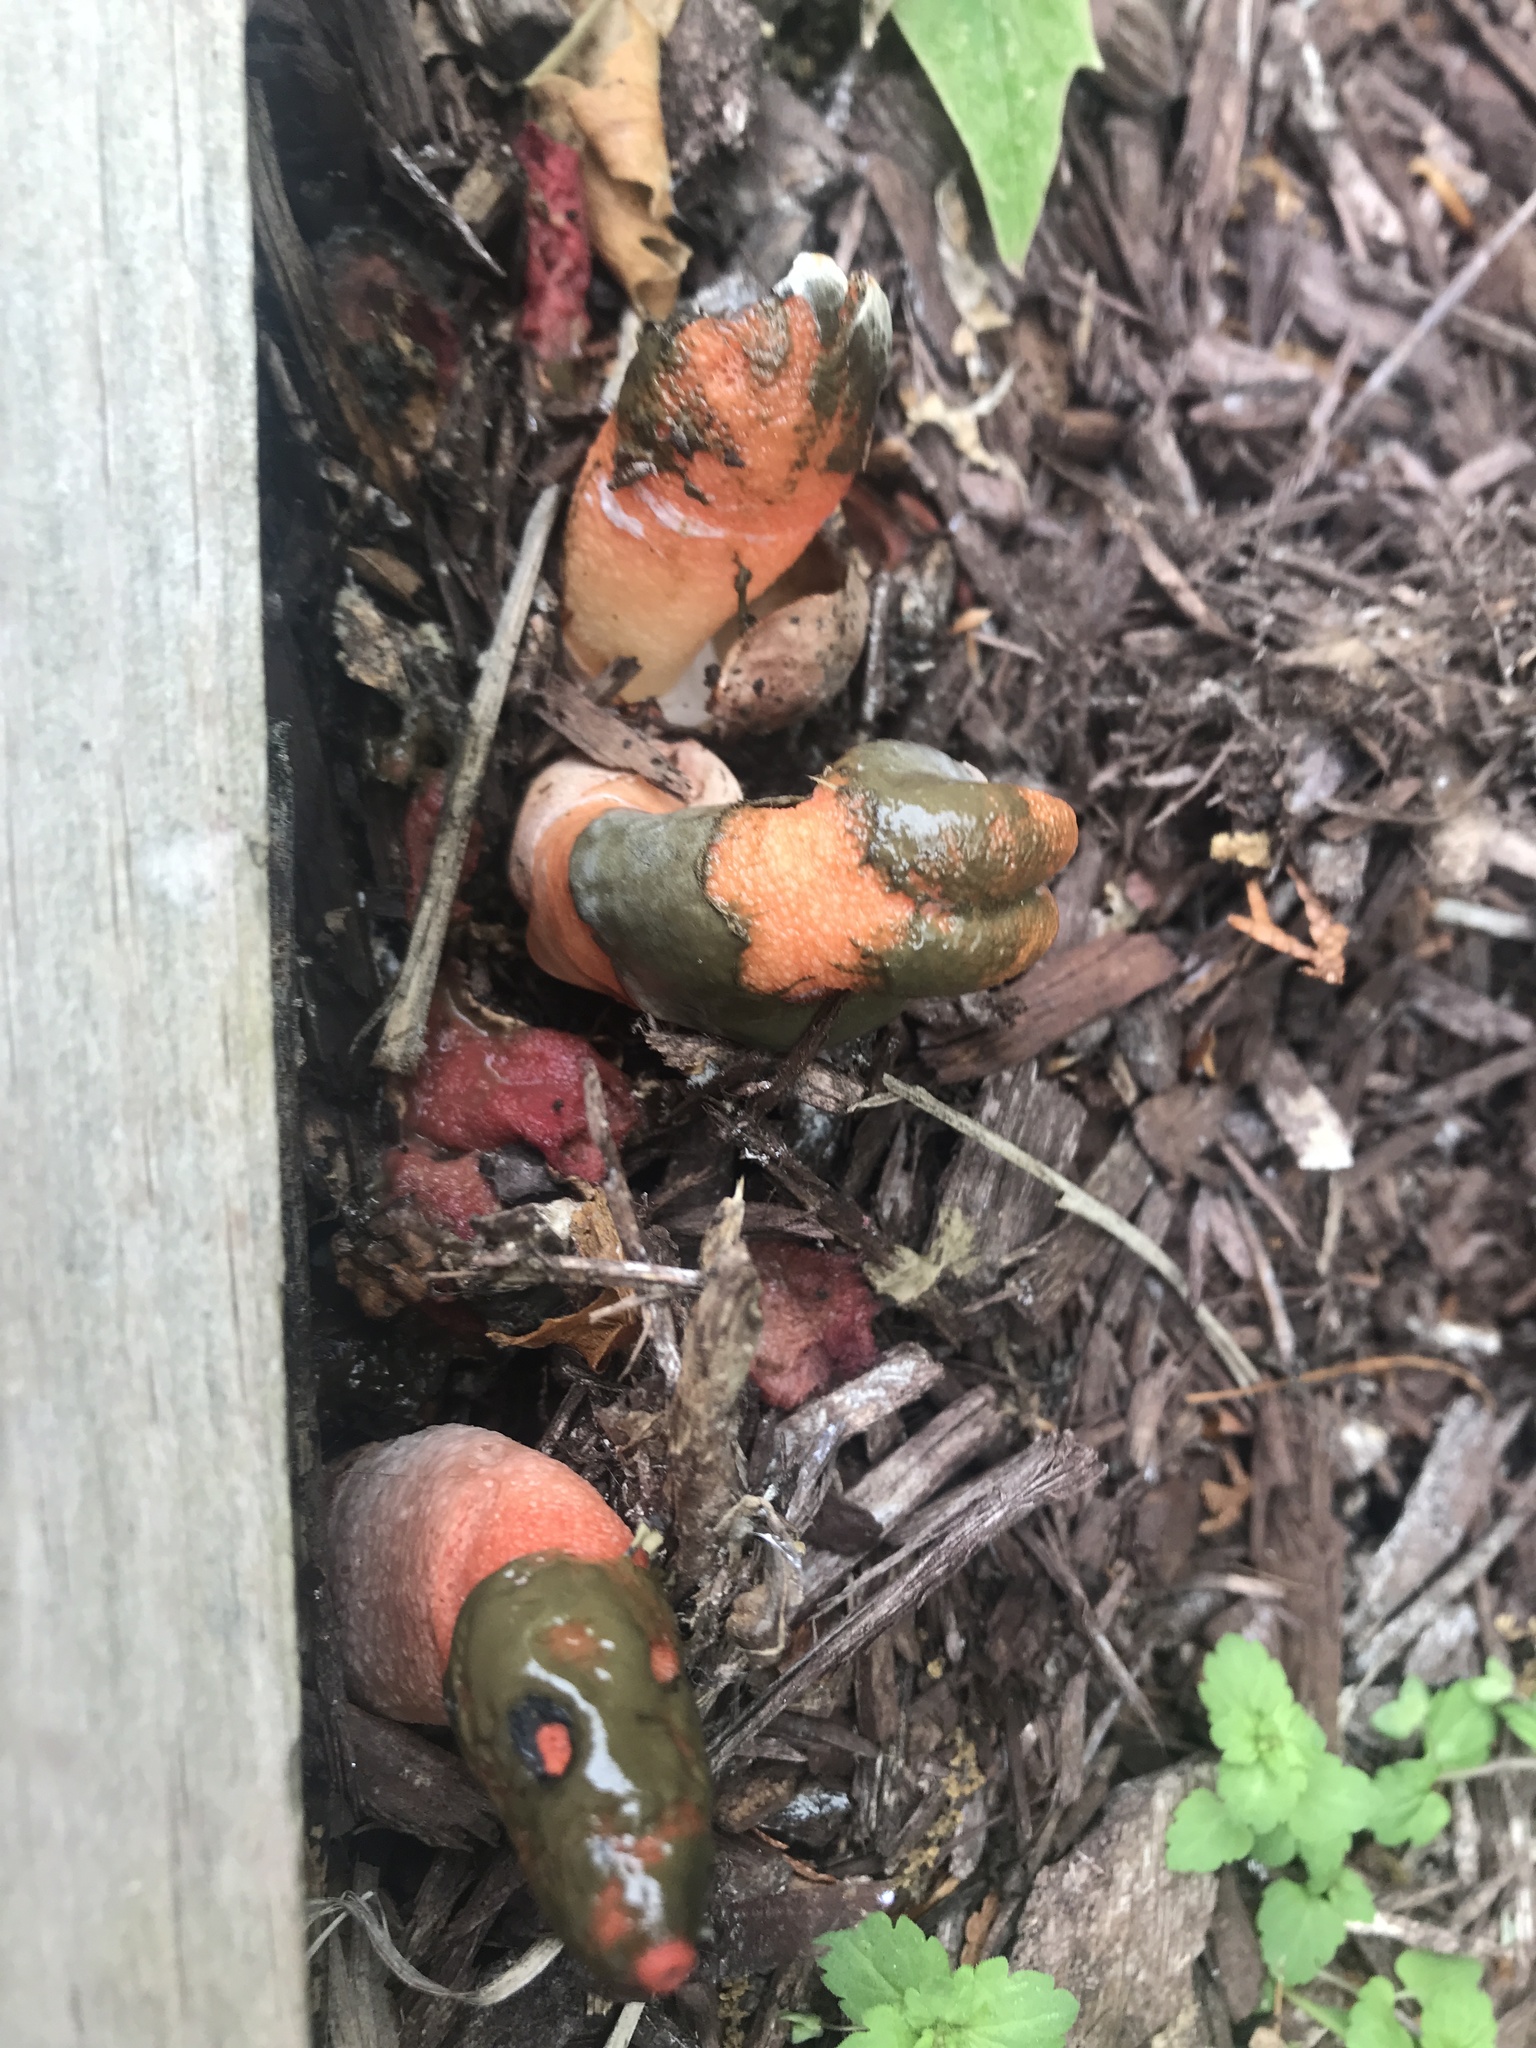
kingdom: Fungi
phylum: Basidiomycota
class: Agaricomycetes
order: Phallales
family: Phallaceae
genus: Mutinus
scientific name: Mutinus elegans
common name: Devil's dipstick
